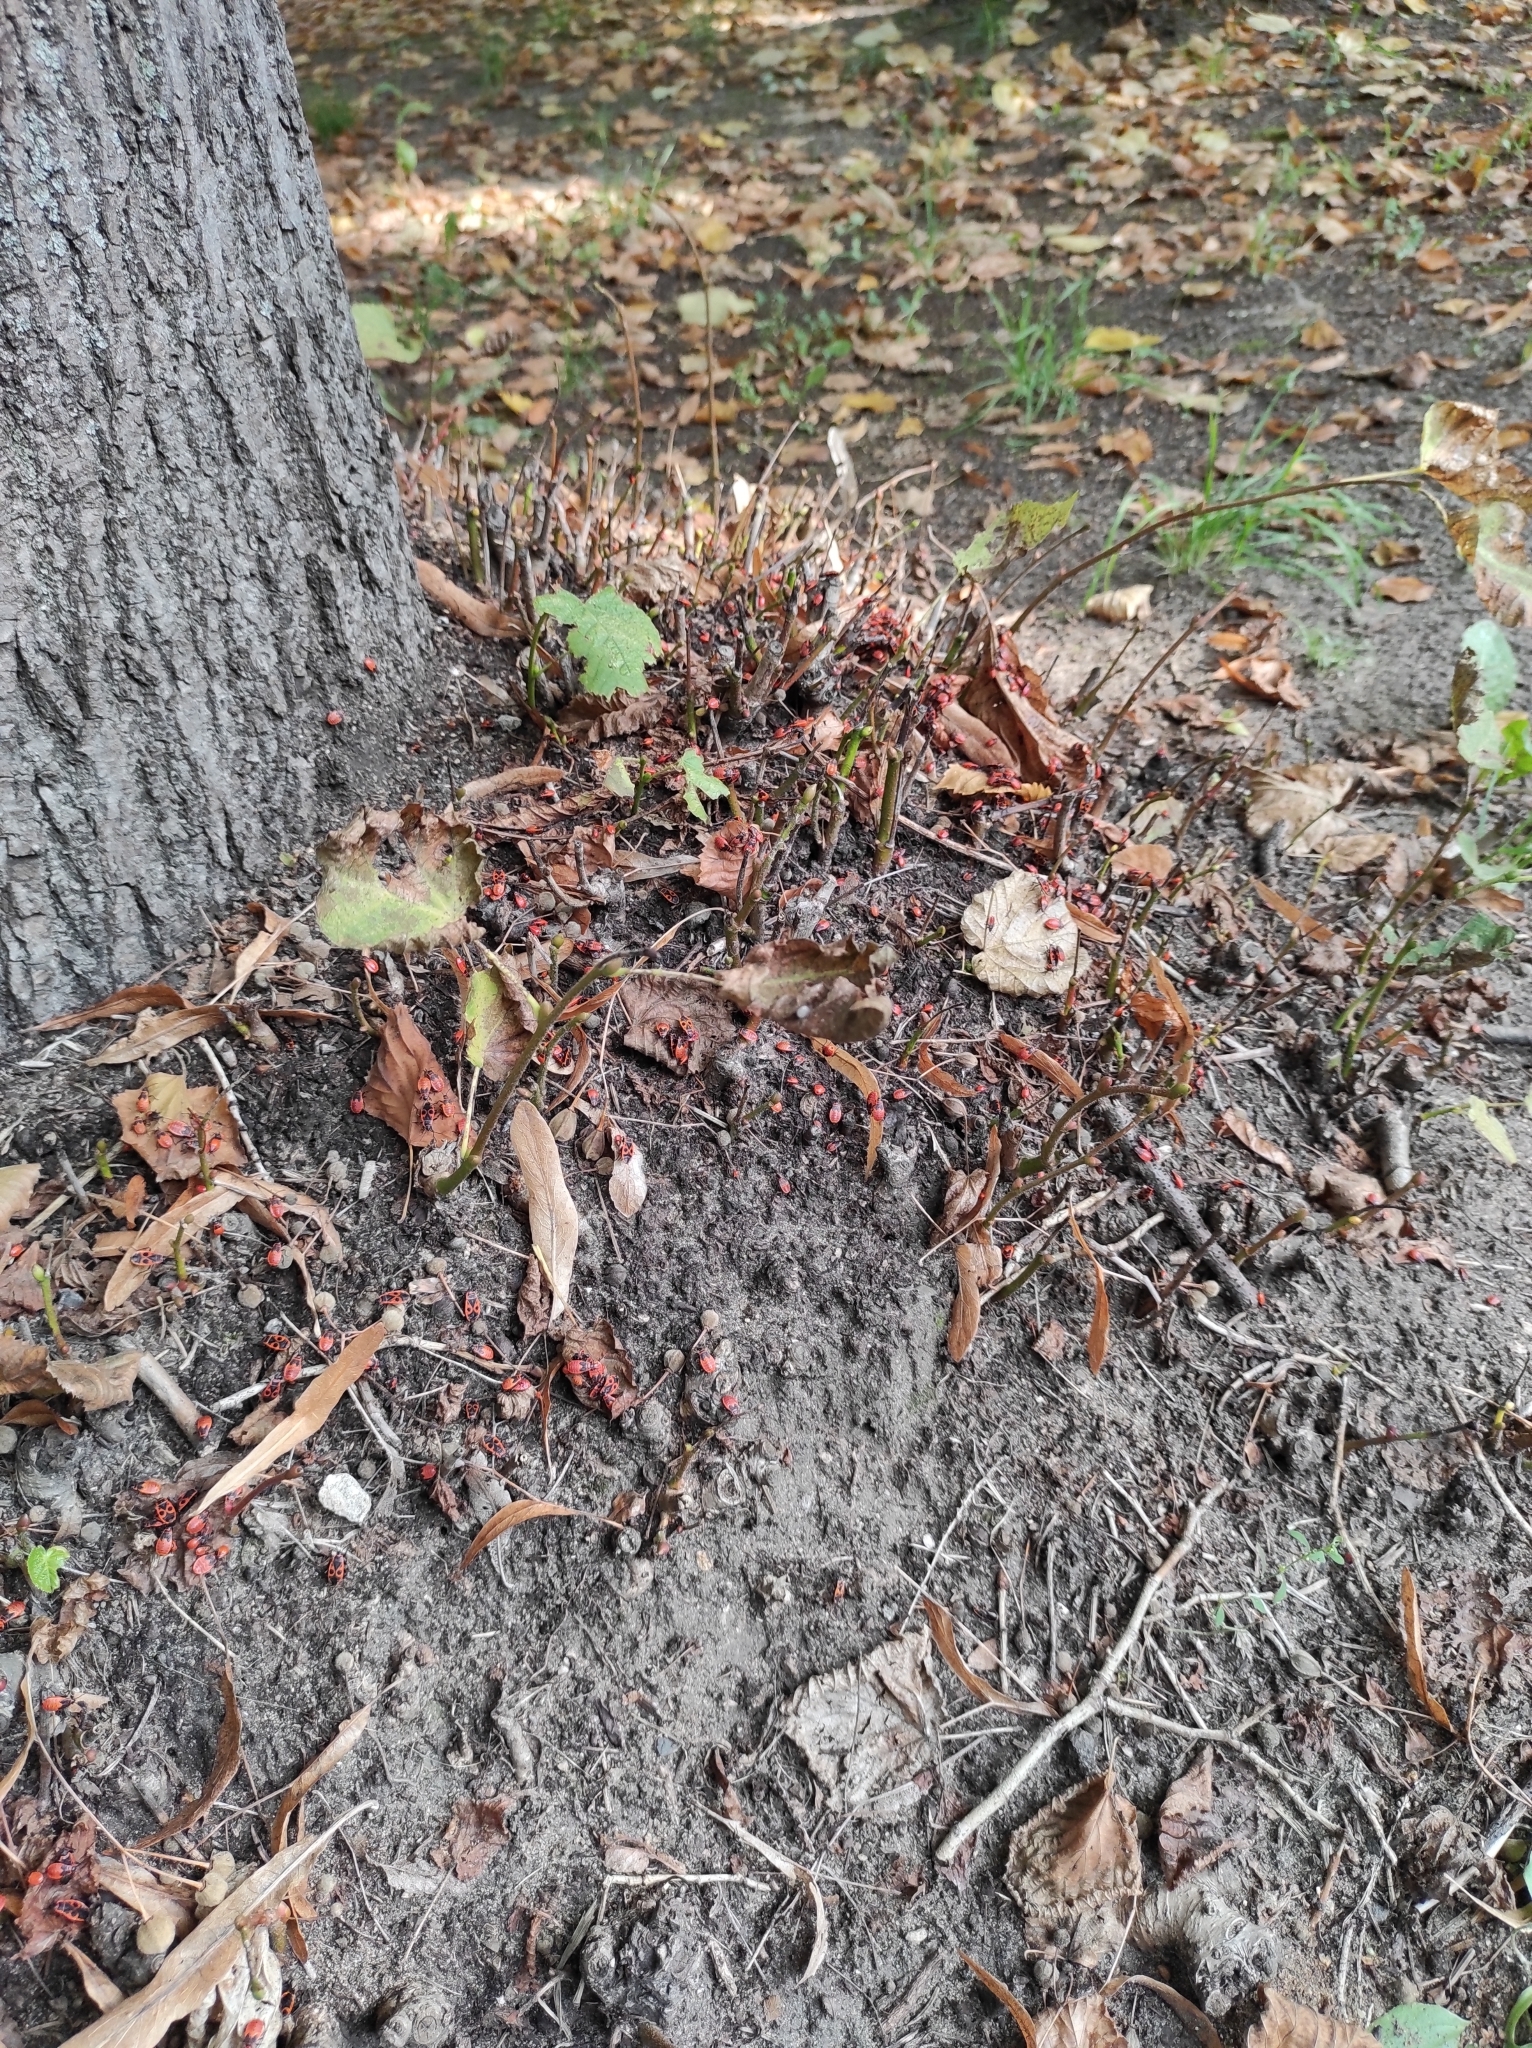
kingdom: Animalia
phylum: Arthropoda
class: Insecta
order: Hemiptera
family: Pyrrhocoridae
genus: Pyrrhocoris
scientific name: Pyrrhocoris apterus
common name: Firebug
